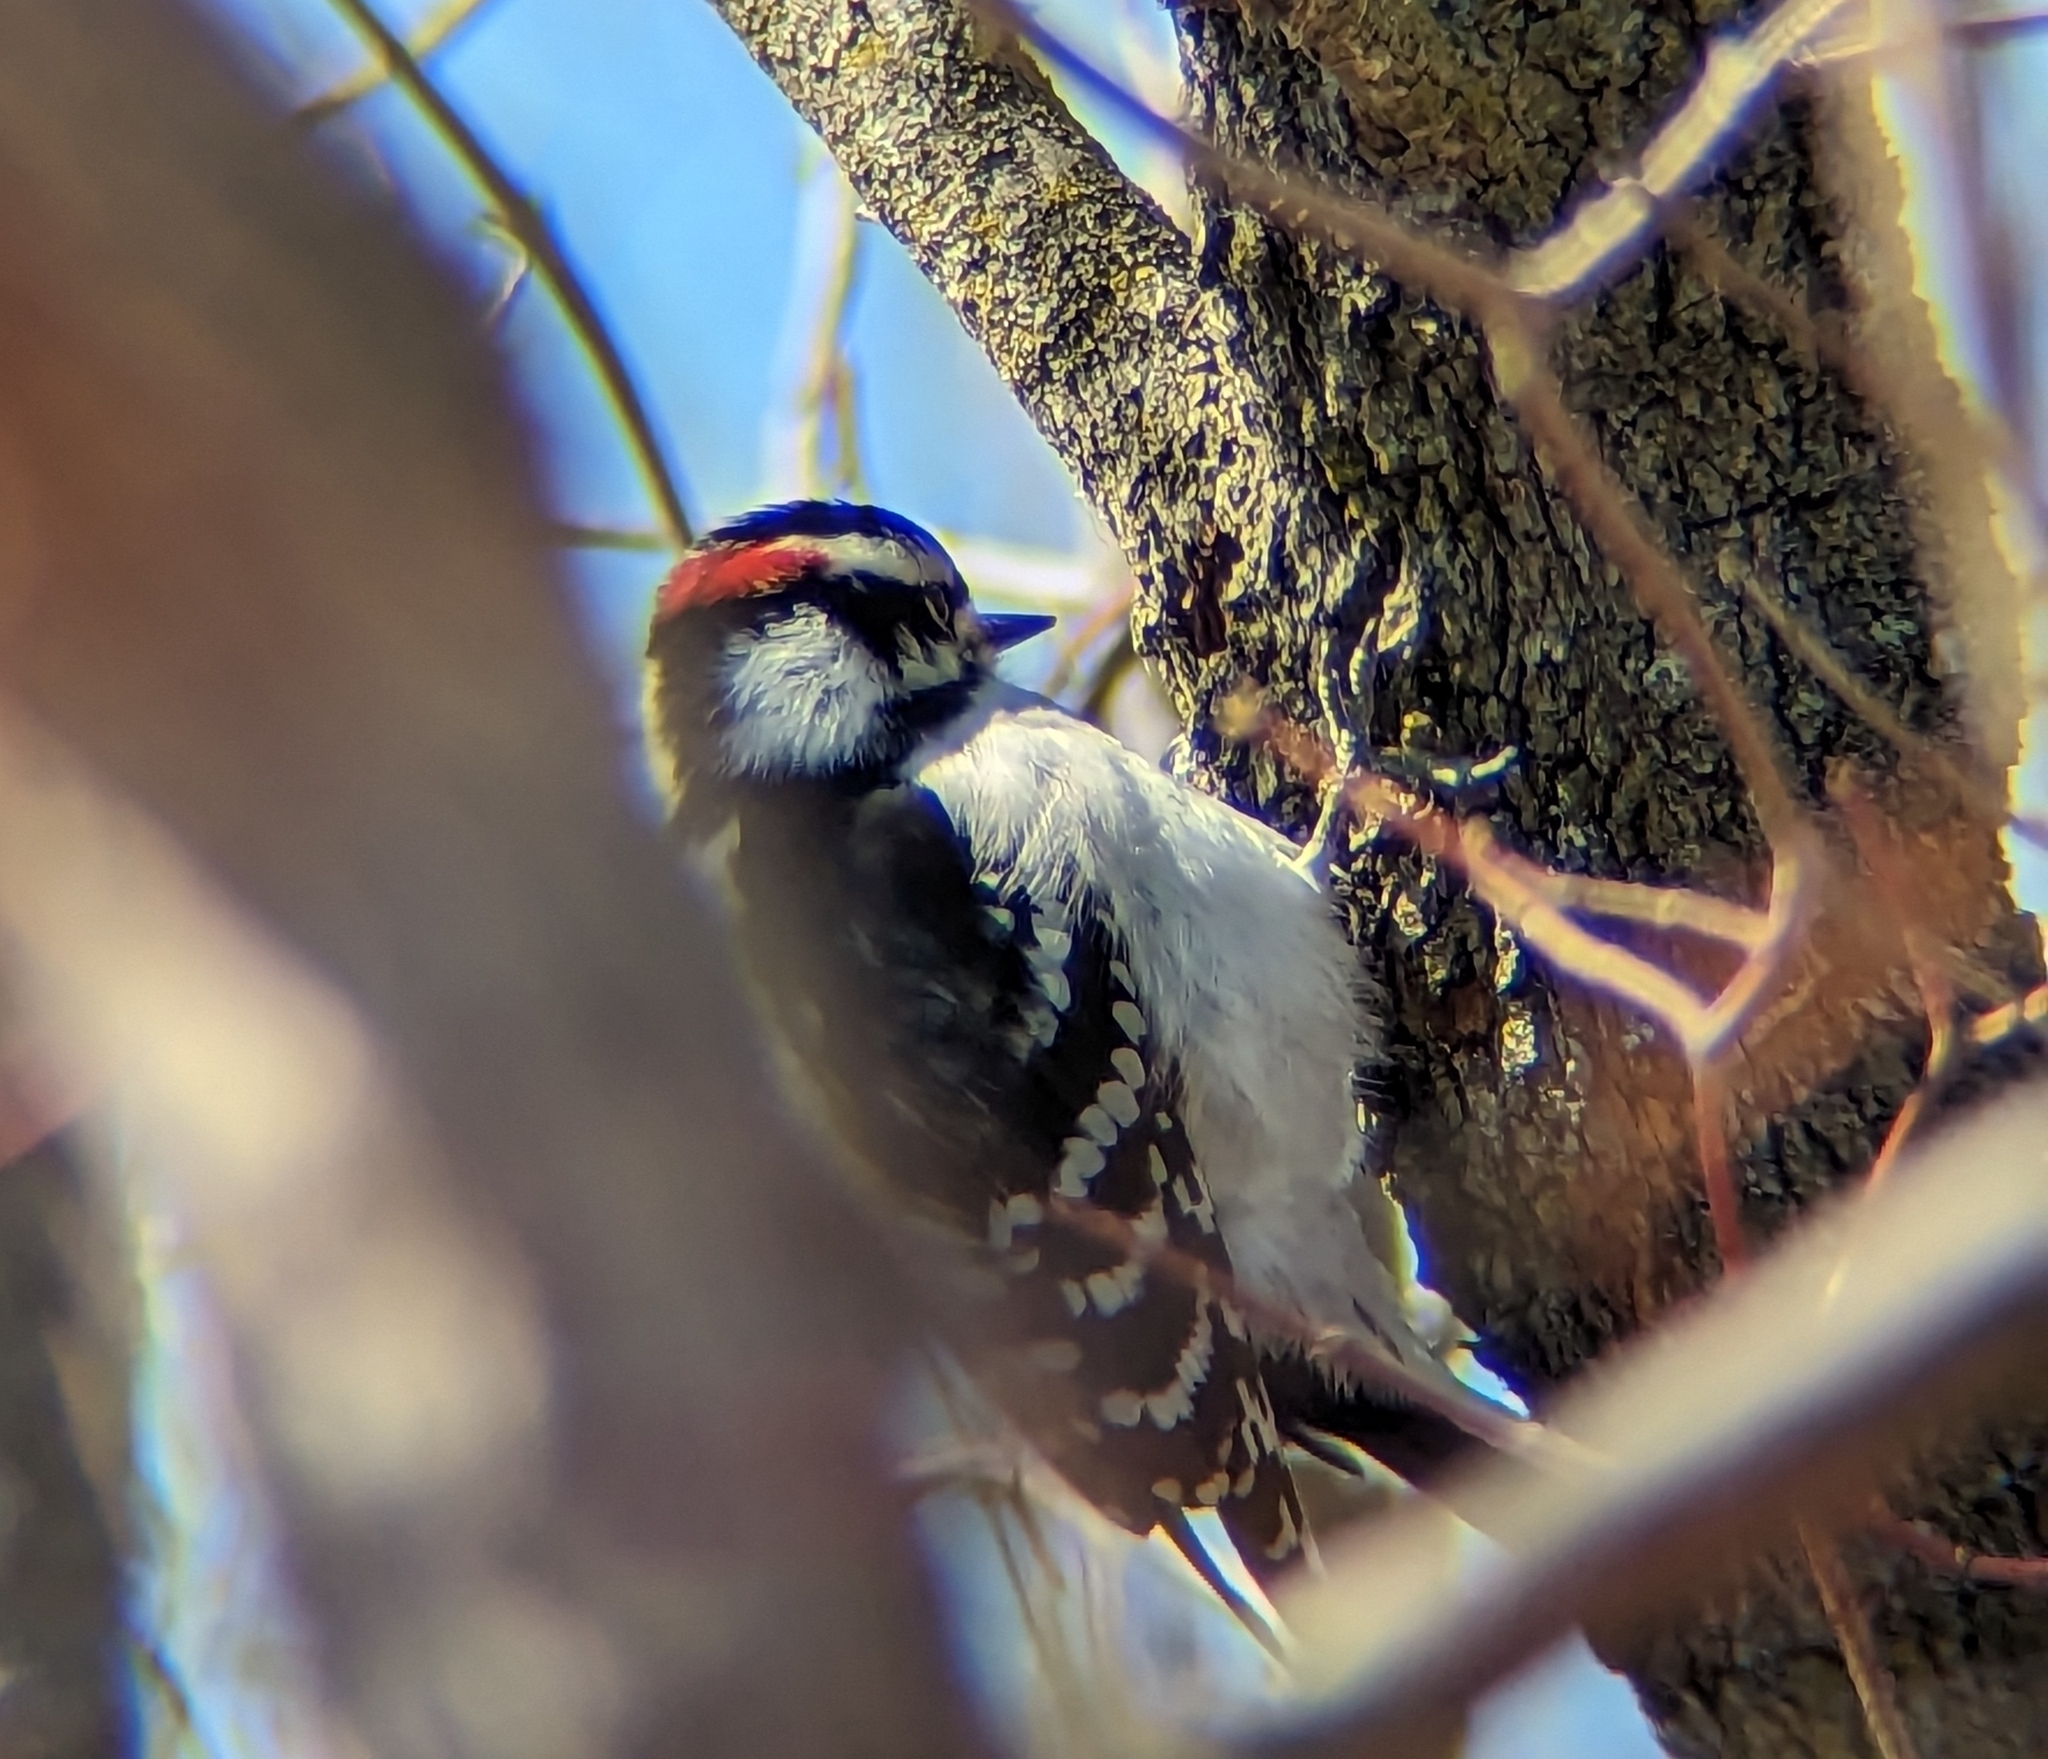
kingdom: Animalia
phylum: Chordata
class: Aves
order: Piciformes
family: Picidae
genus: Dryobates
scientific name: Dryobates pubescens
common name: Downy woodpecker
